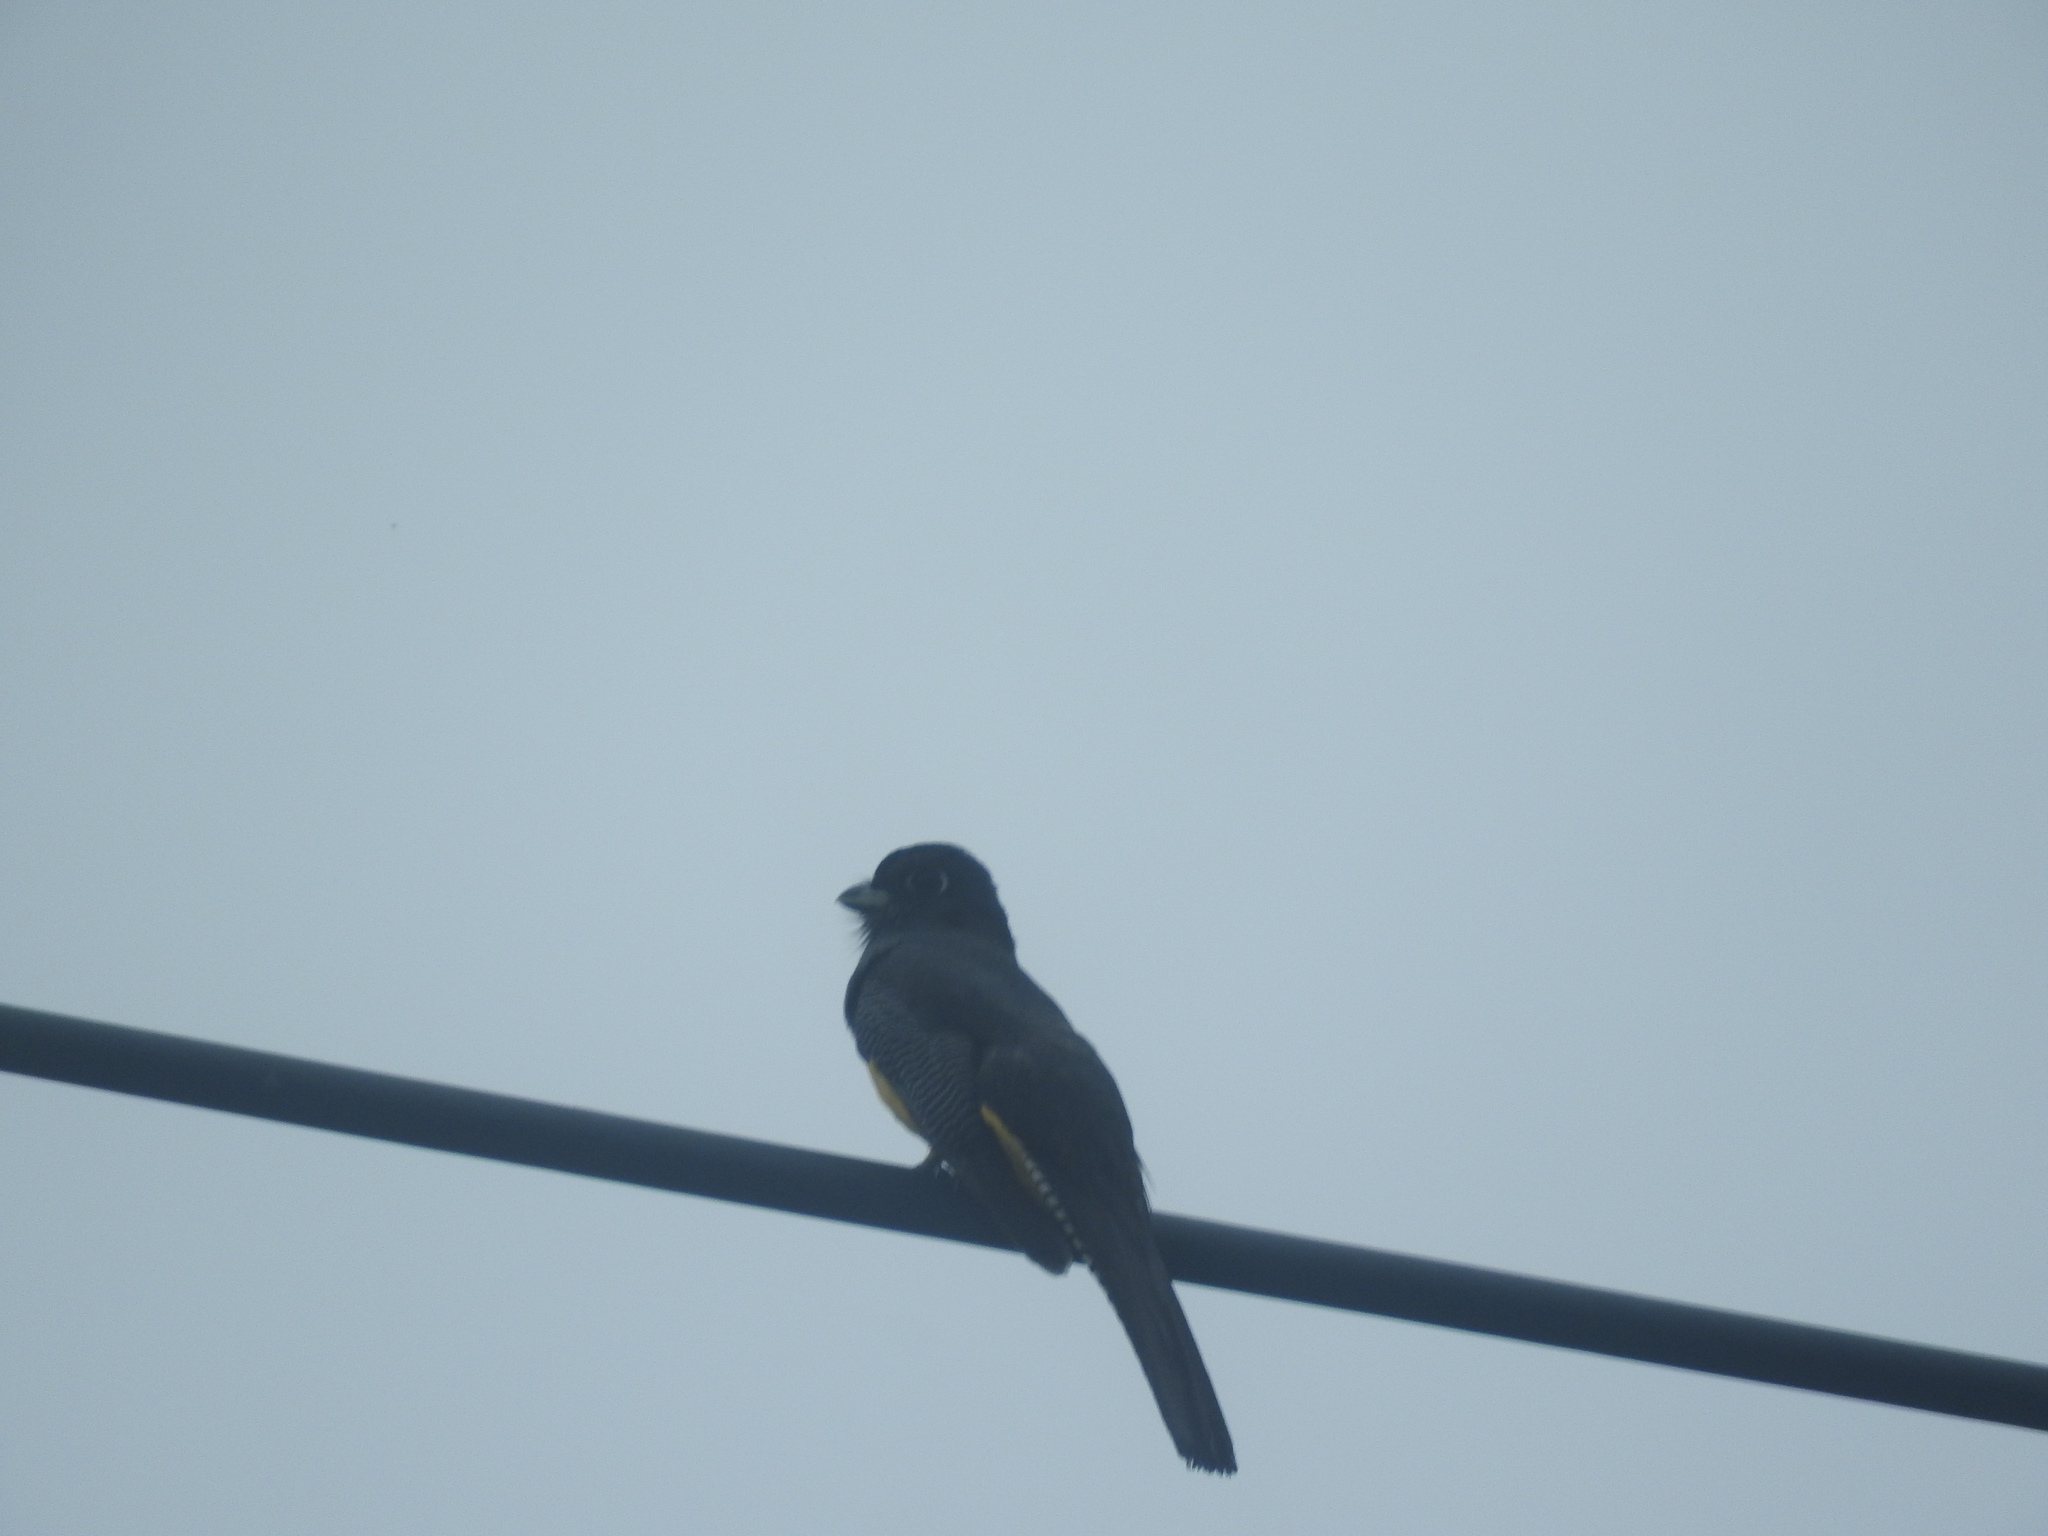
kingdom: Animalia
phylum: Chordata
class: Aves
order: Trogoniformes
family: Trogonidae
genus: Trogon
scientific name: Trogon caligatus
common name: Gartered trogon
